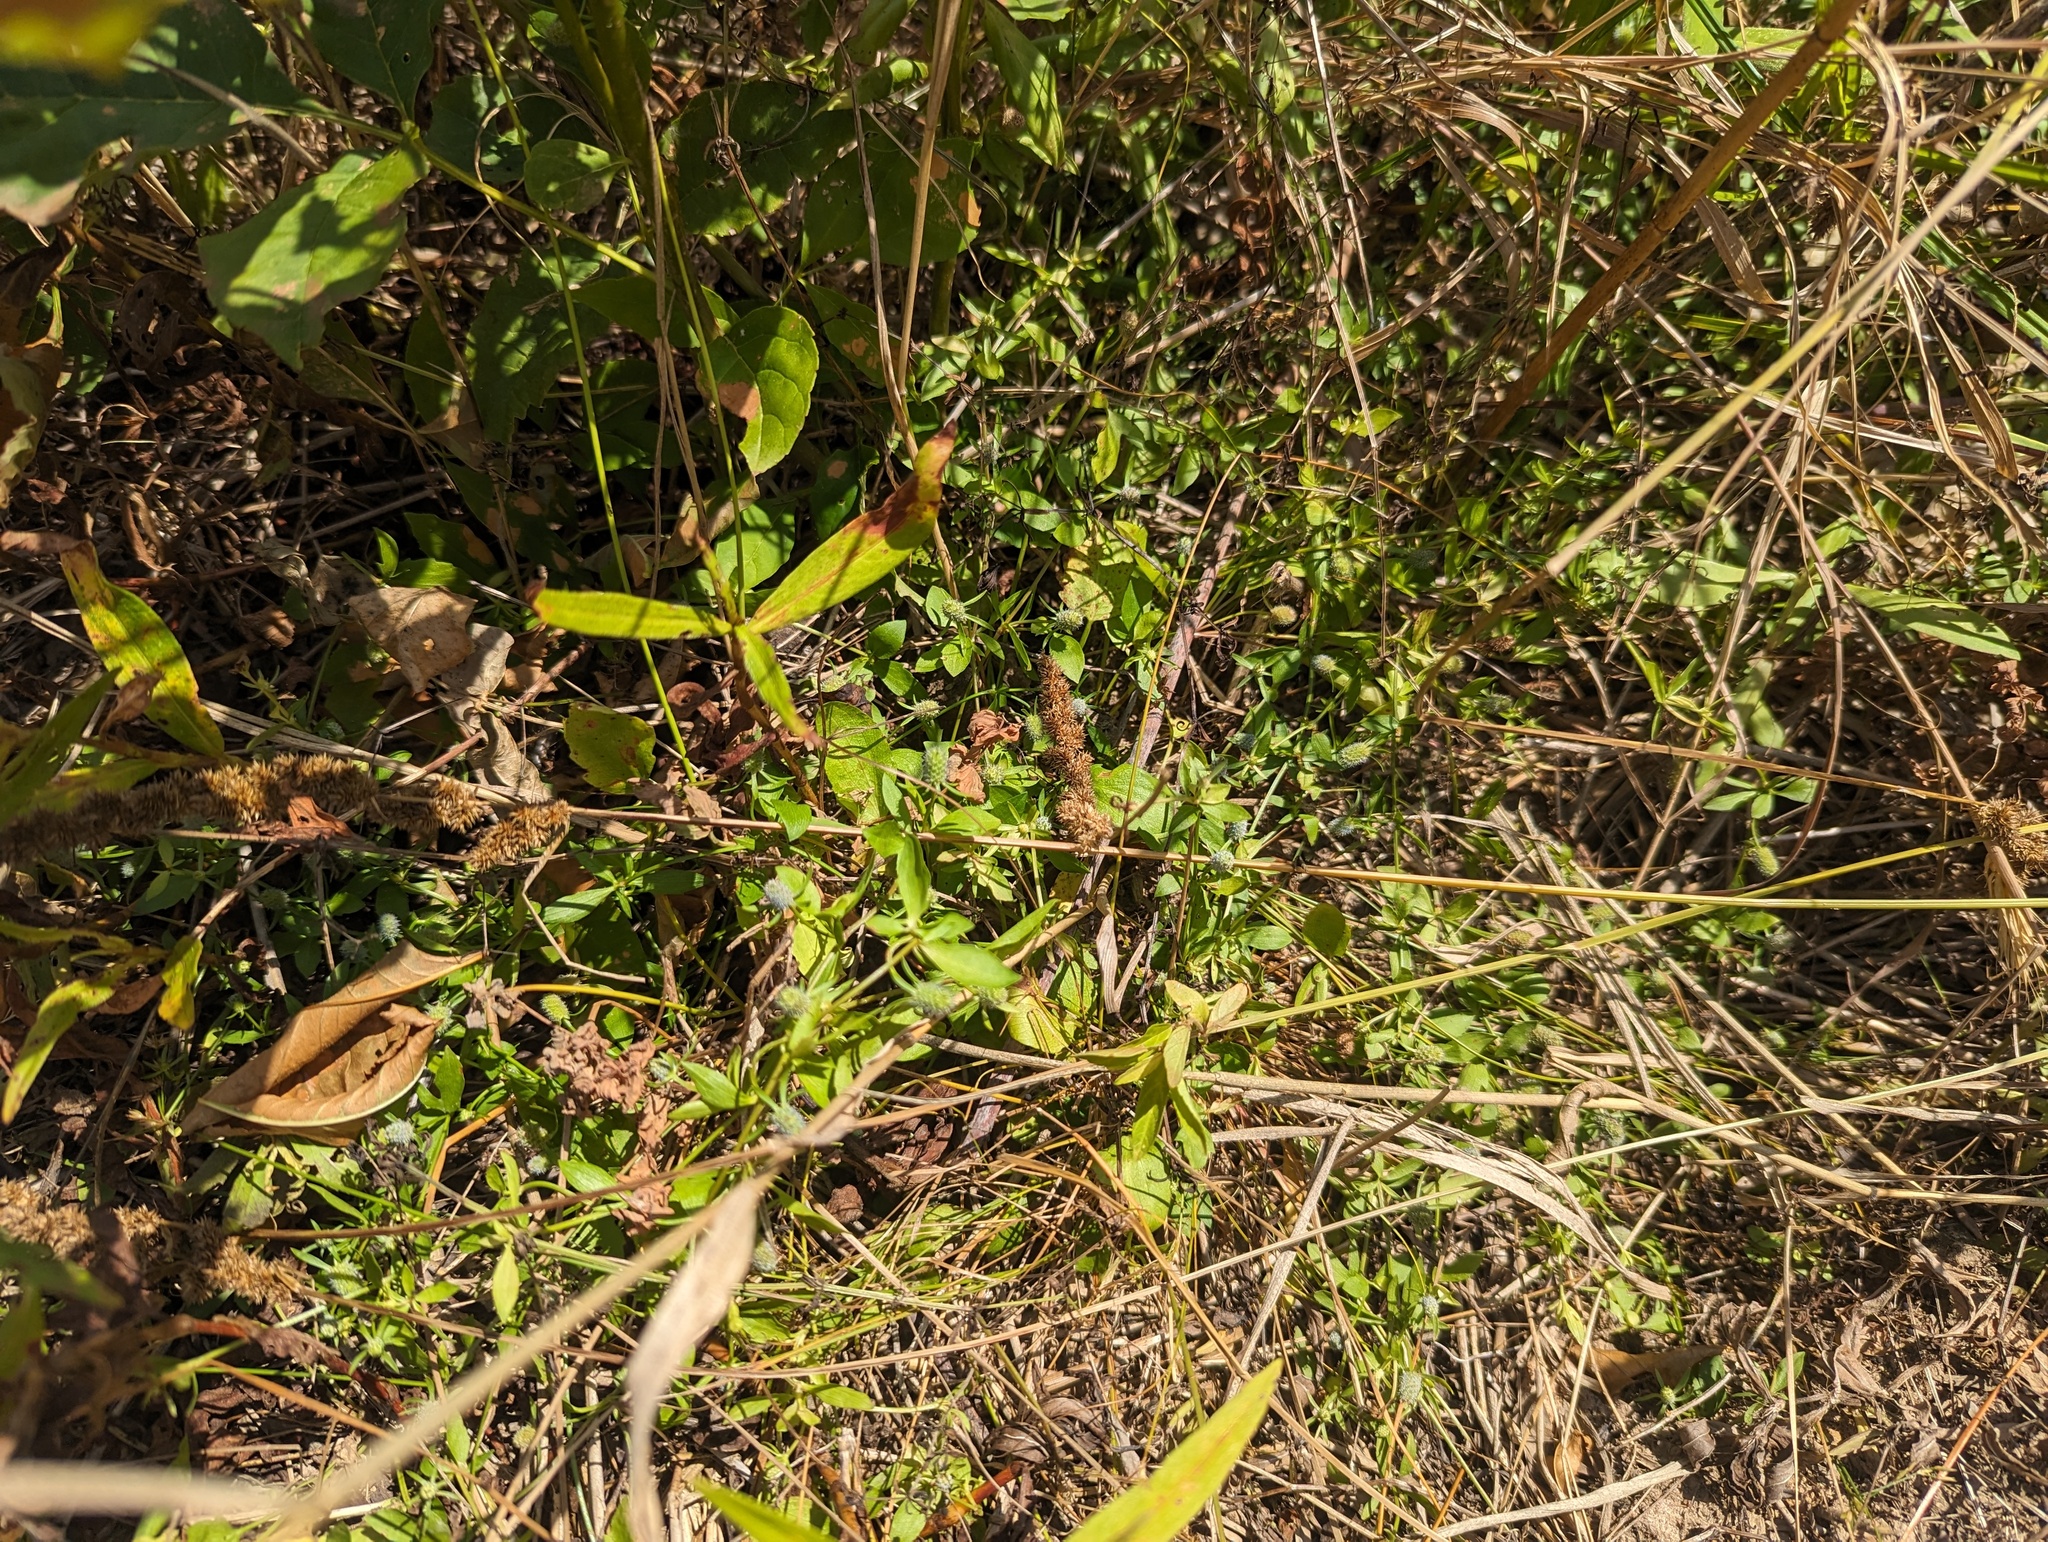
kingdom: Plantae
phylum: Tracheophyta
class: Magnoliopsida
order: Apiales
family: Apiaceae
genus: Eryngium
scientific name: Eryngium prostratum
